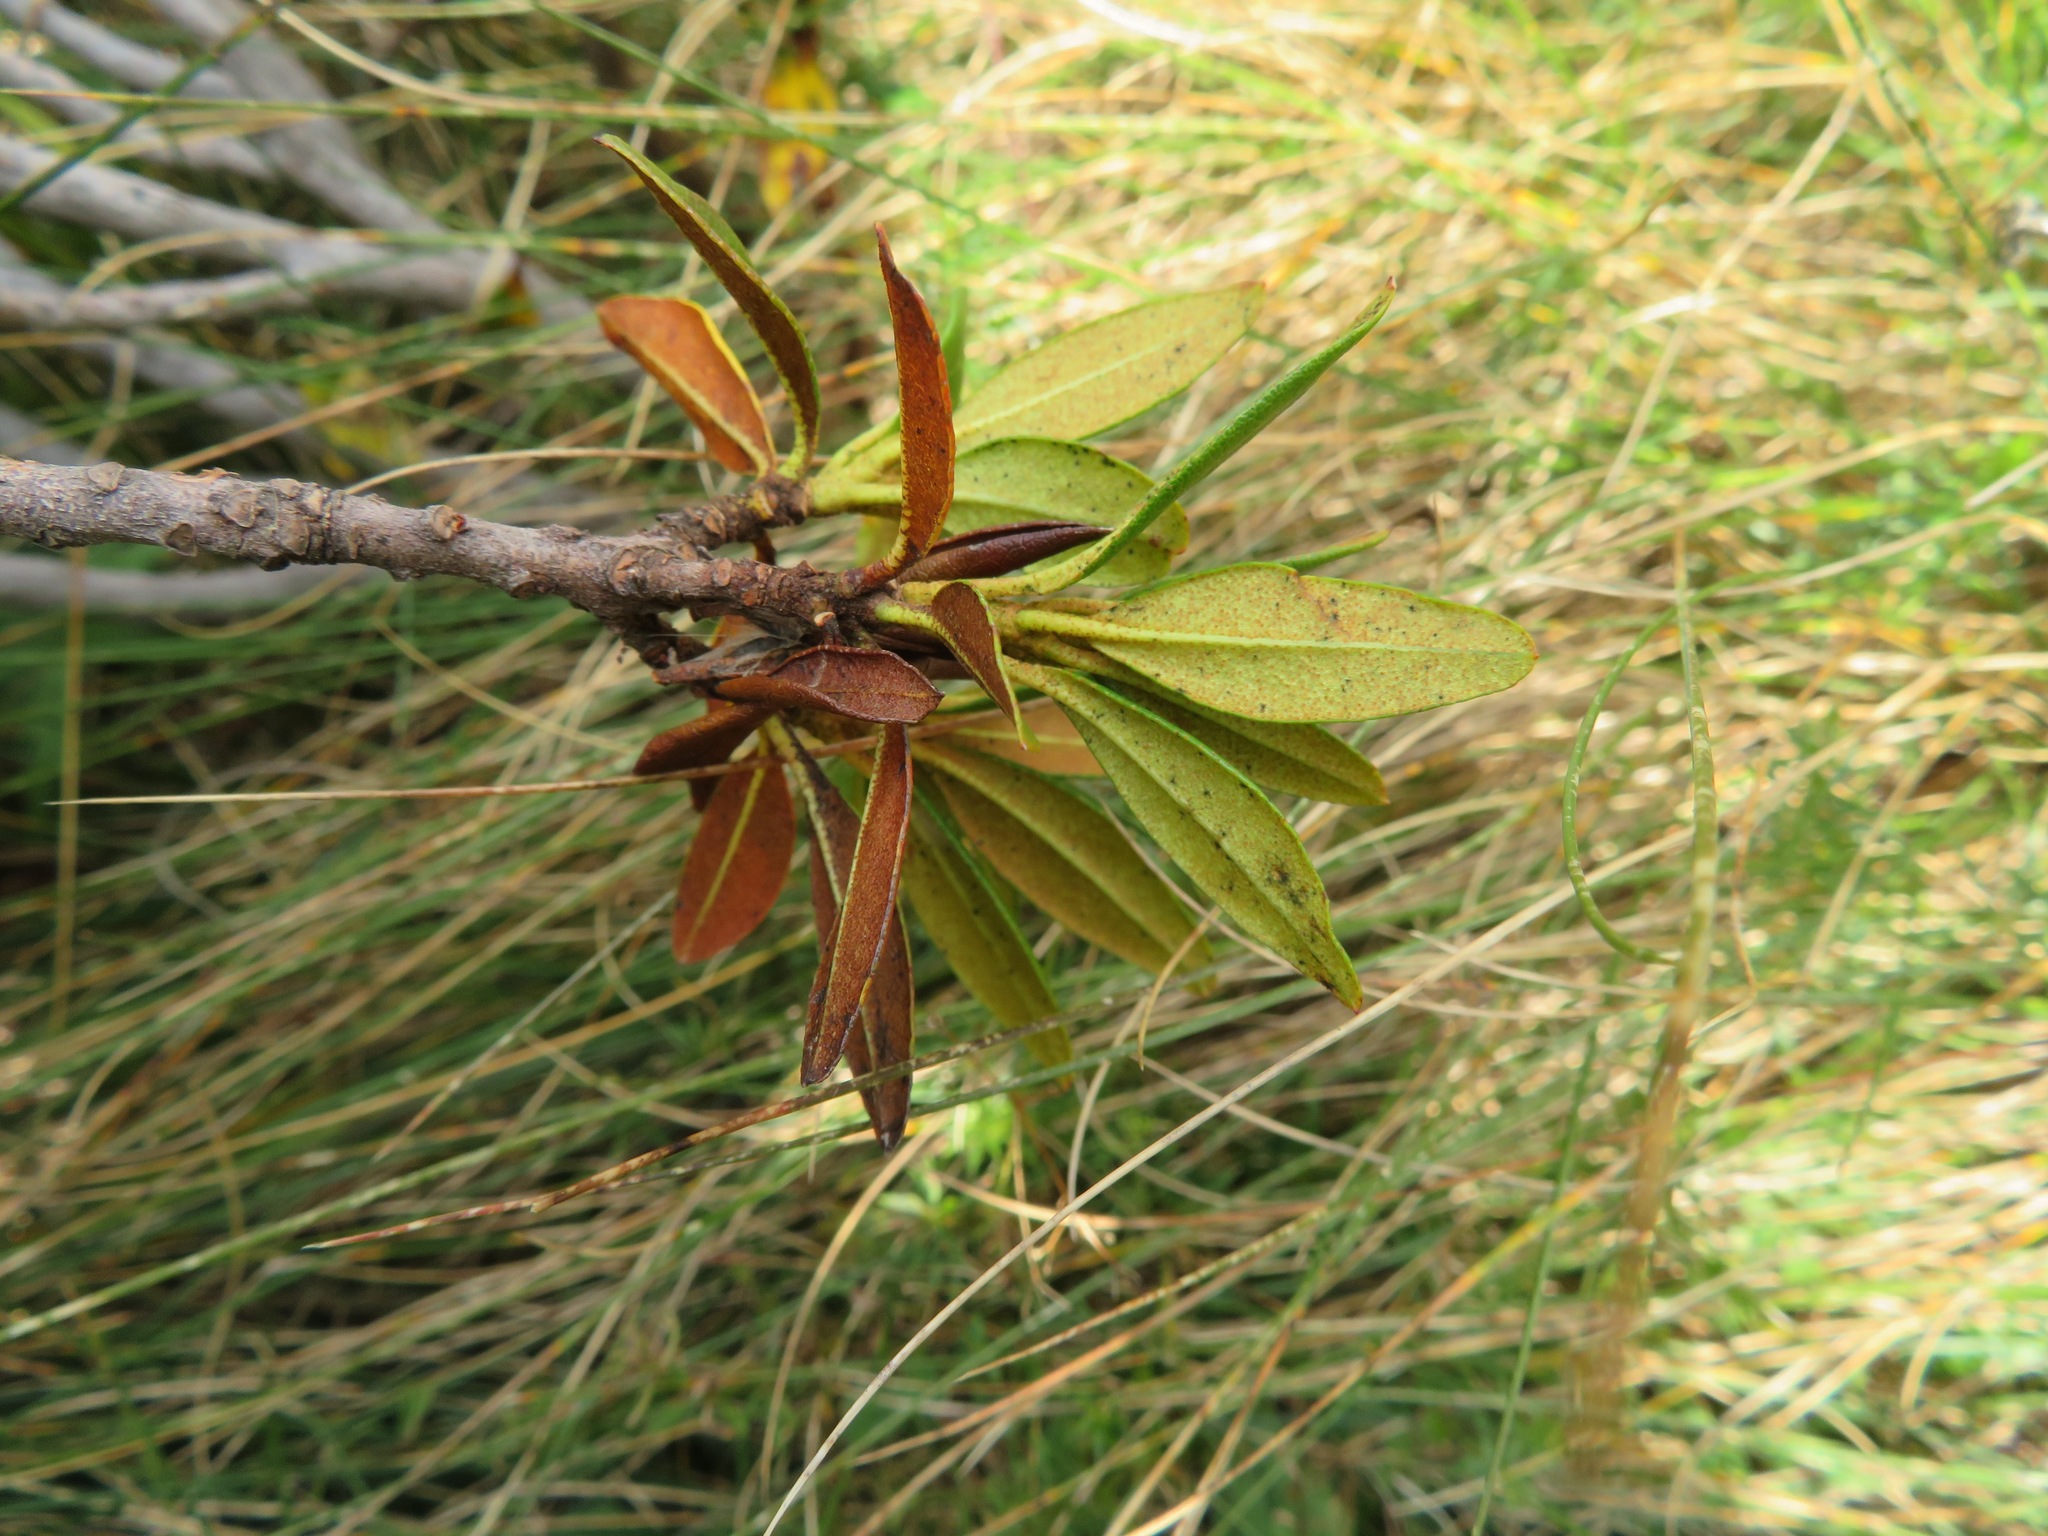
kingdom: Plantae
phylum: Tracheophyta
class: Magnoliopsida
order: Ericales
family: Ericaceae
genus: Rhododendron
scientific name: Rhododendron ferrugineum
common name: Alpenrose
